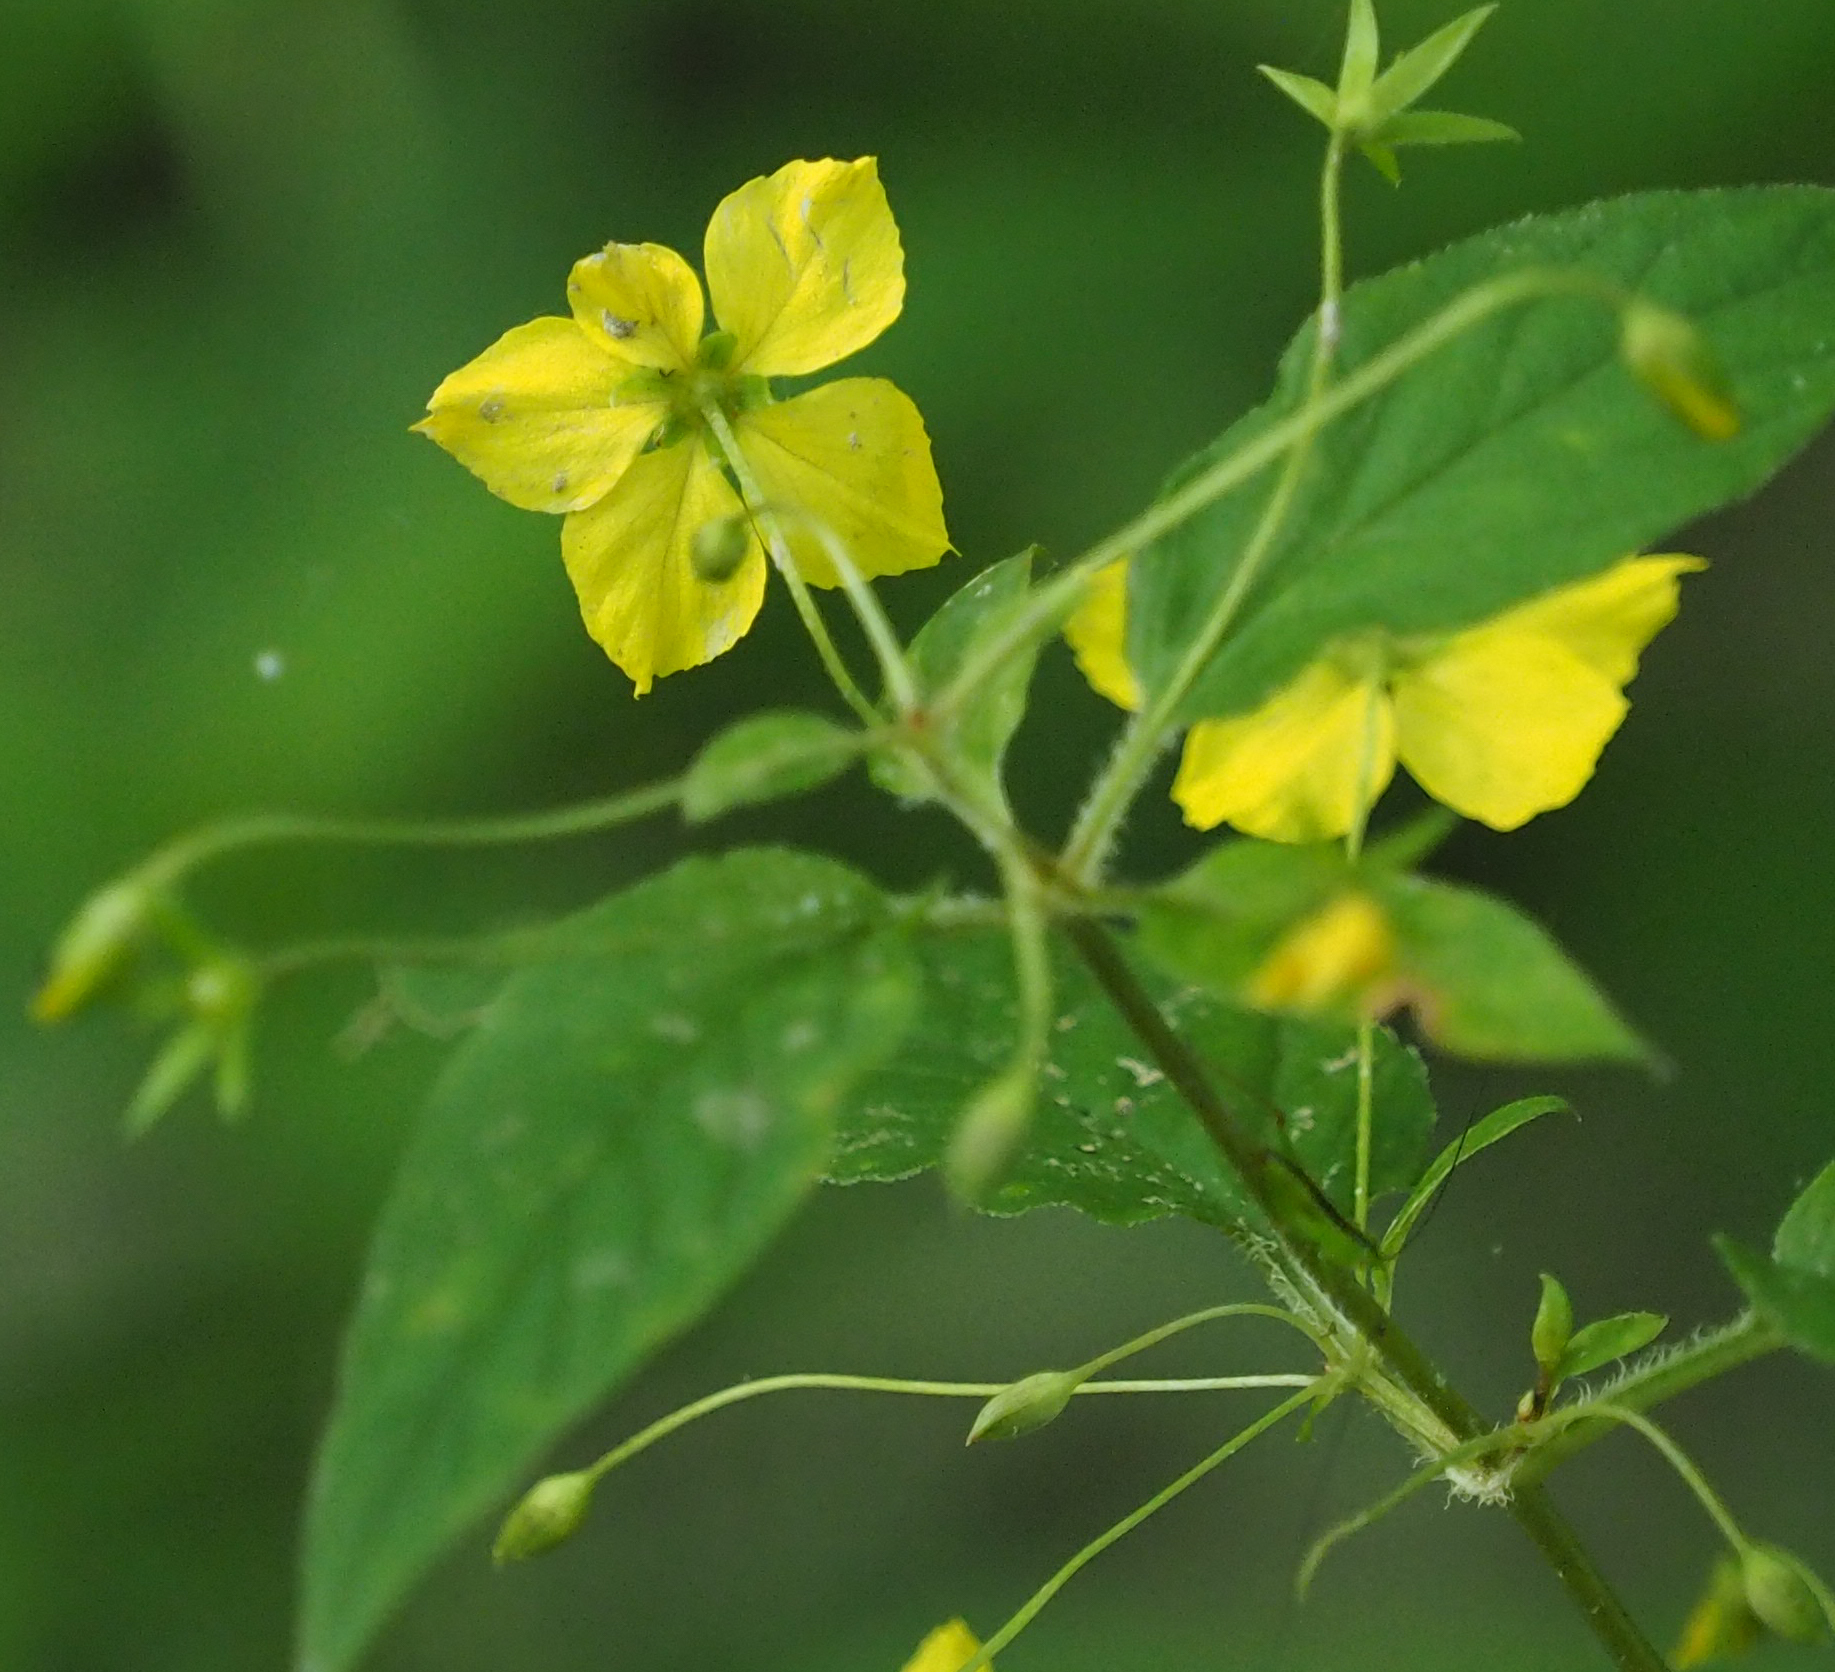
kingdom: Plantae
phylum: Tracheophyta
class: Magnoliopsida
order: Ericales
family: Primulaceae
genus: Lysimachia
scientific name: Lysimachia ciliata
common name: Fringed loosestrife
